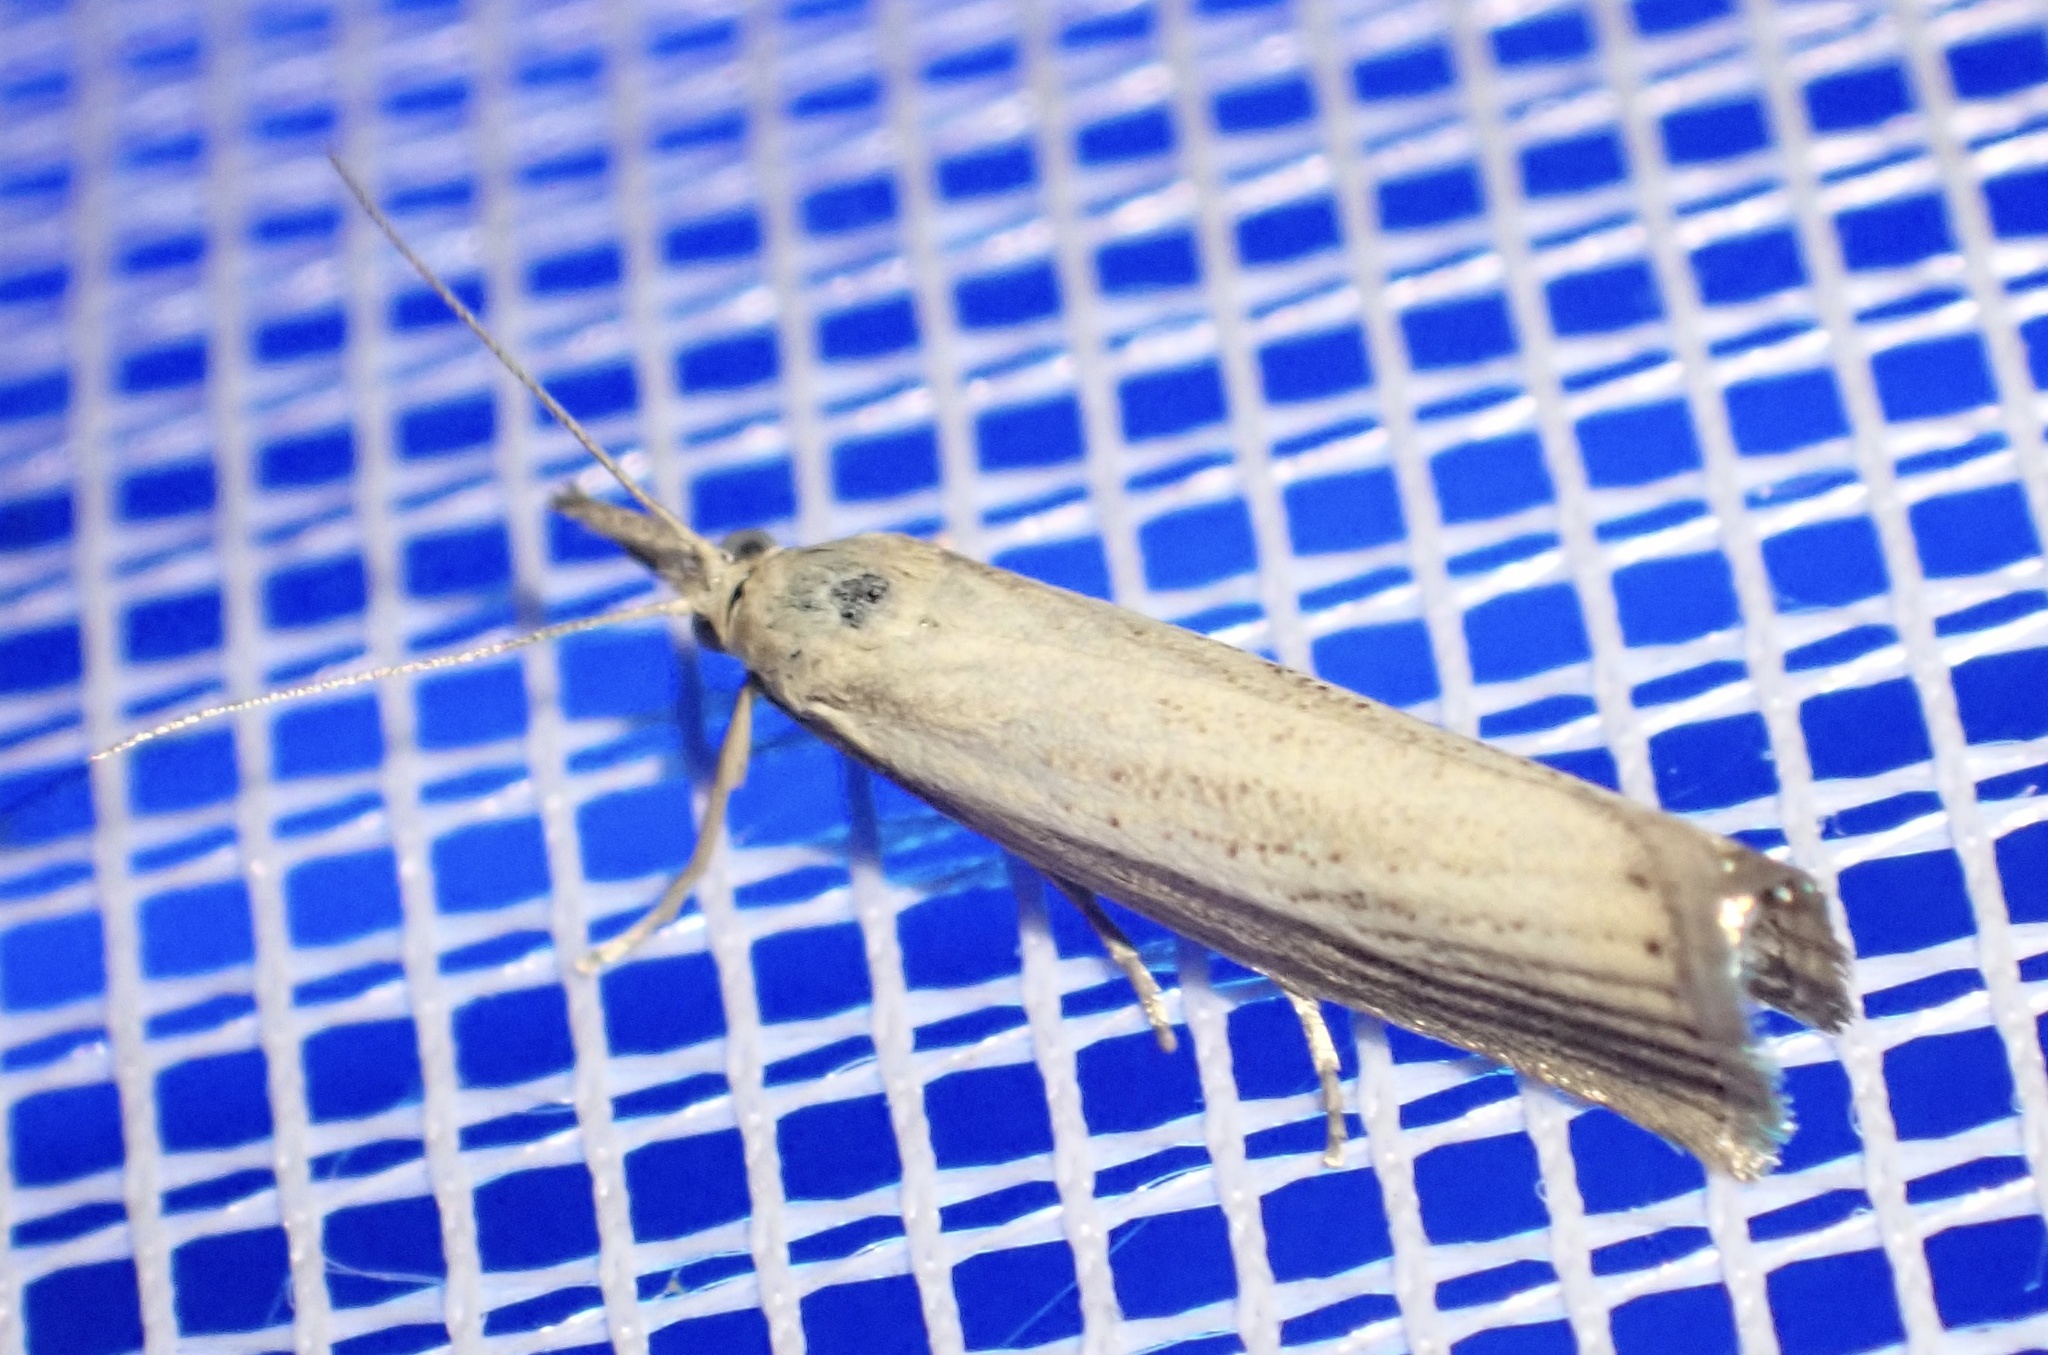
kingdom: Animalia
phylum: Arthropoda
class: Insecta
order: Lepidoptera
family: Crambidae
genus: Agriphila
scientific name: Agriphila straminella
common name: Straw grass-veneer
